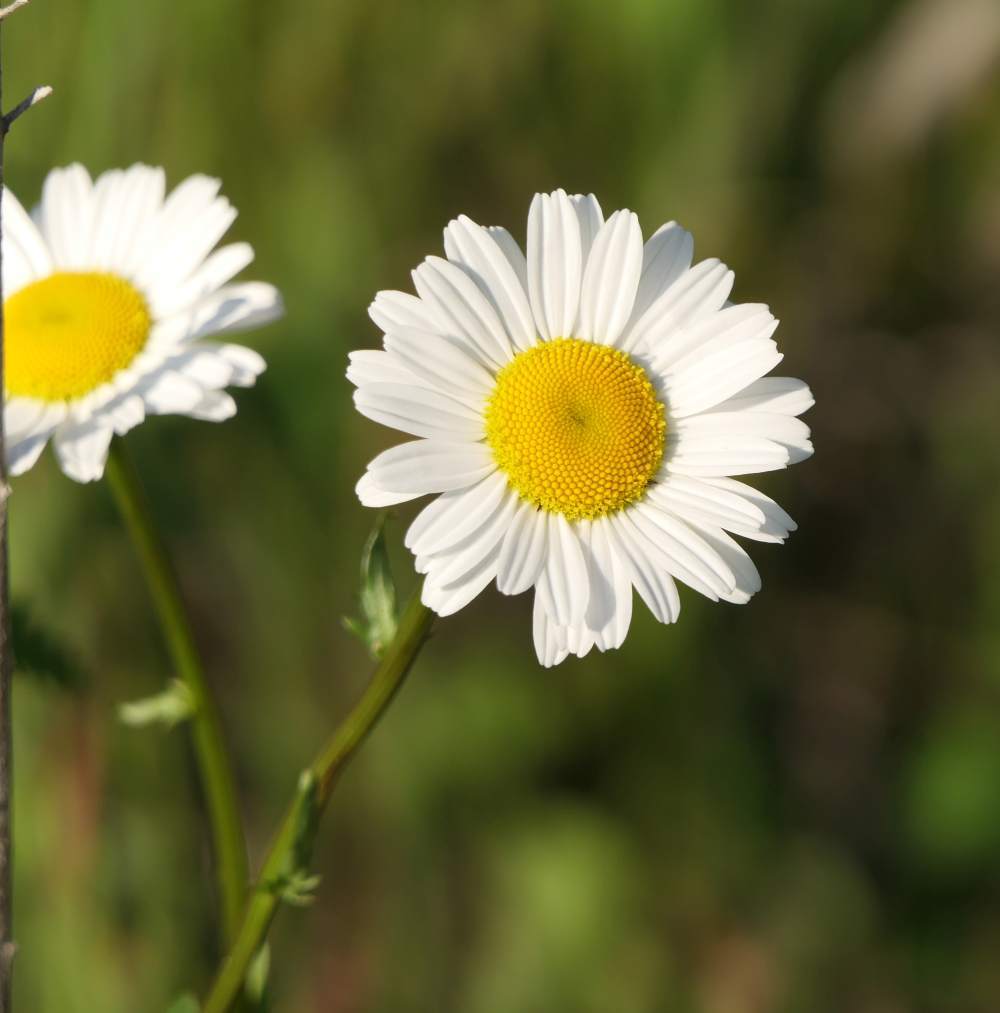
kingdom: Plantae
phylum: Tracheophyta
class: Magnoliopsida
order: Asterales
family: Asteraceae
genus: Leucanthemum
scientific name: Leucanthemum vulgare
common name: Oxeye daisy
